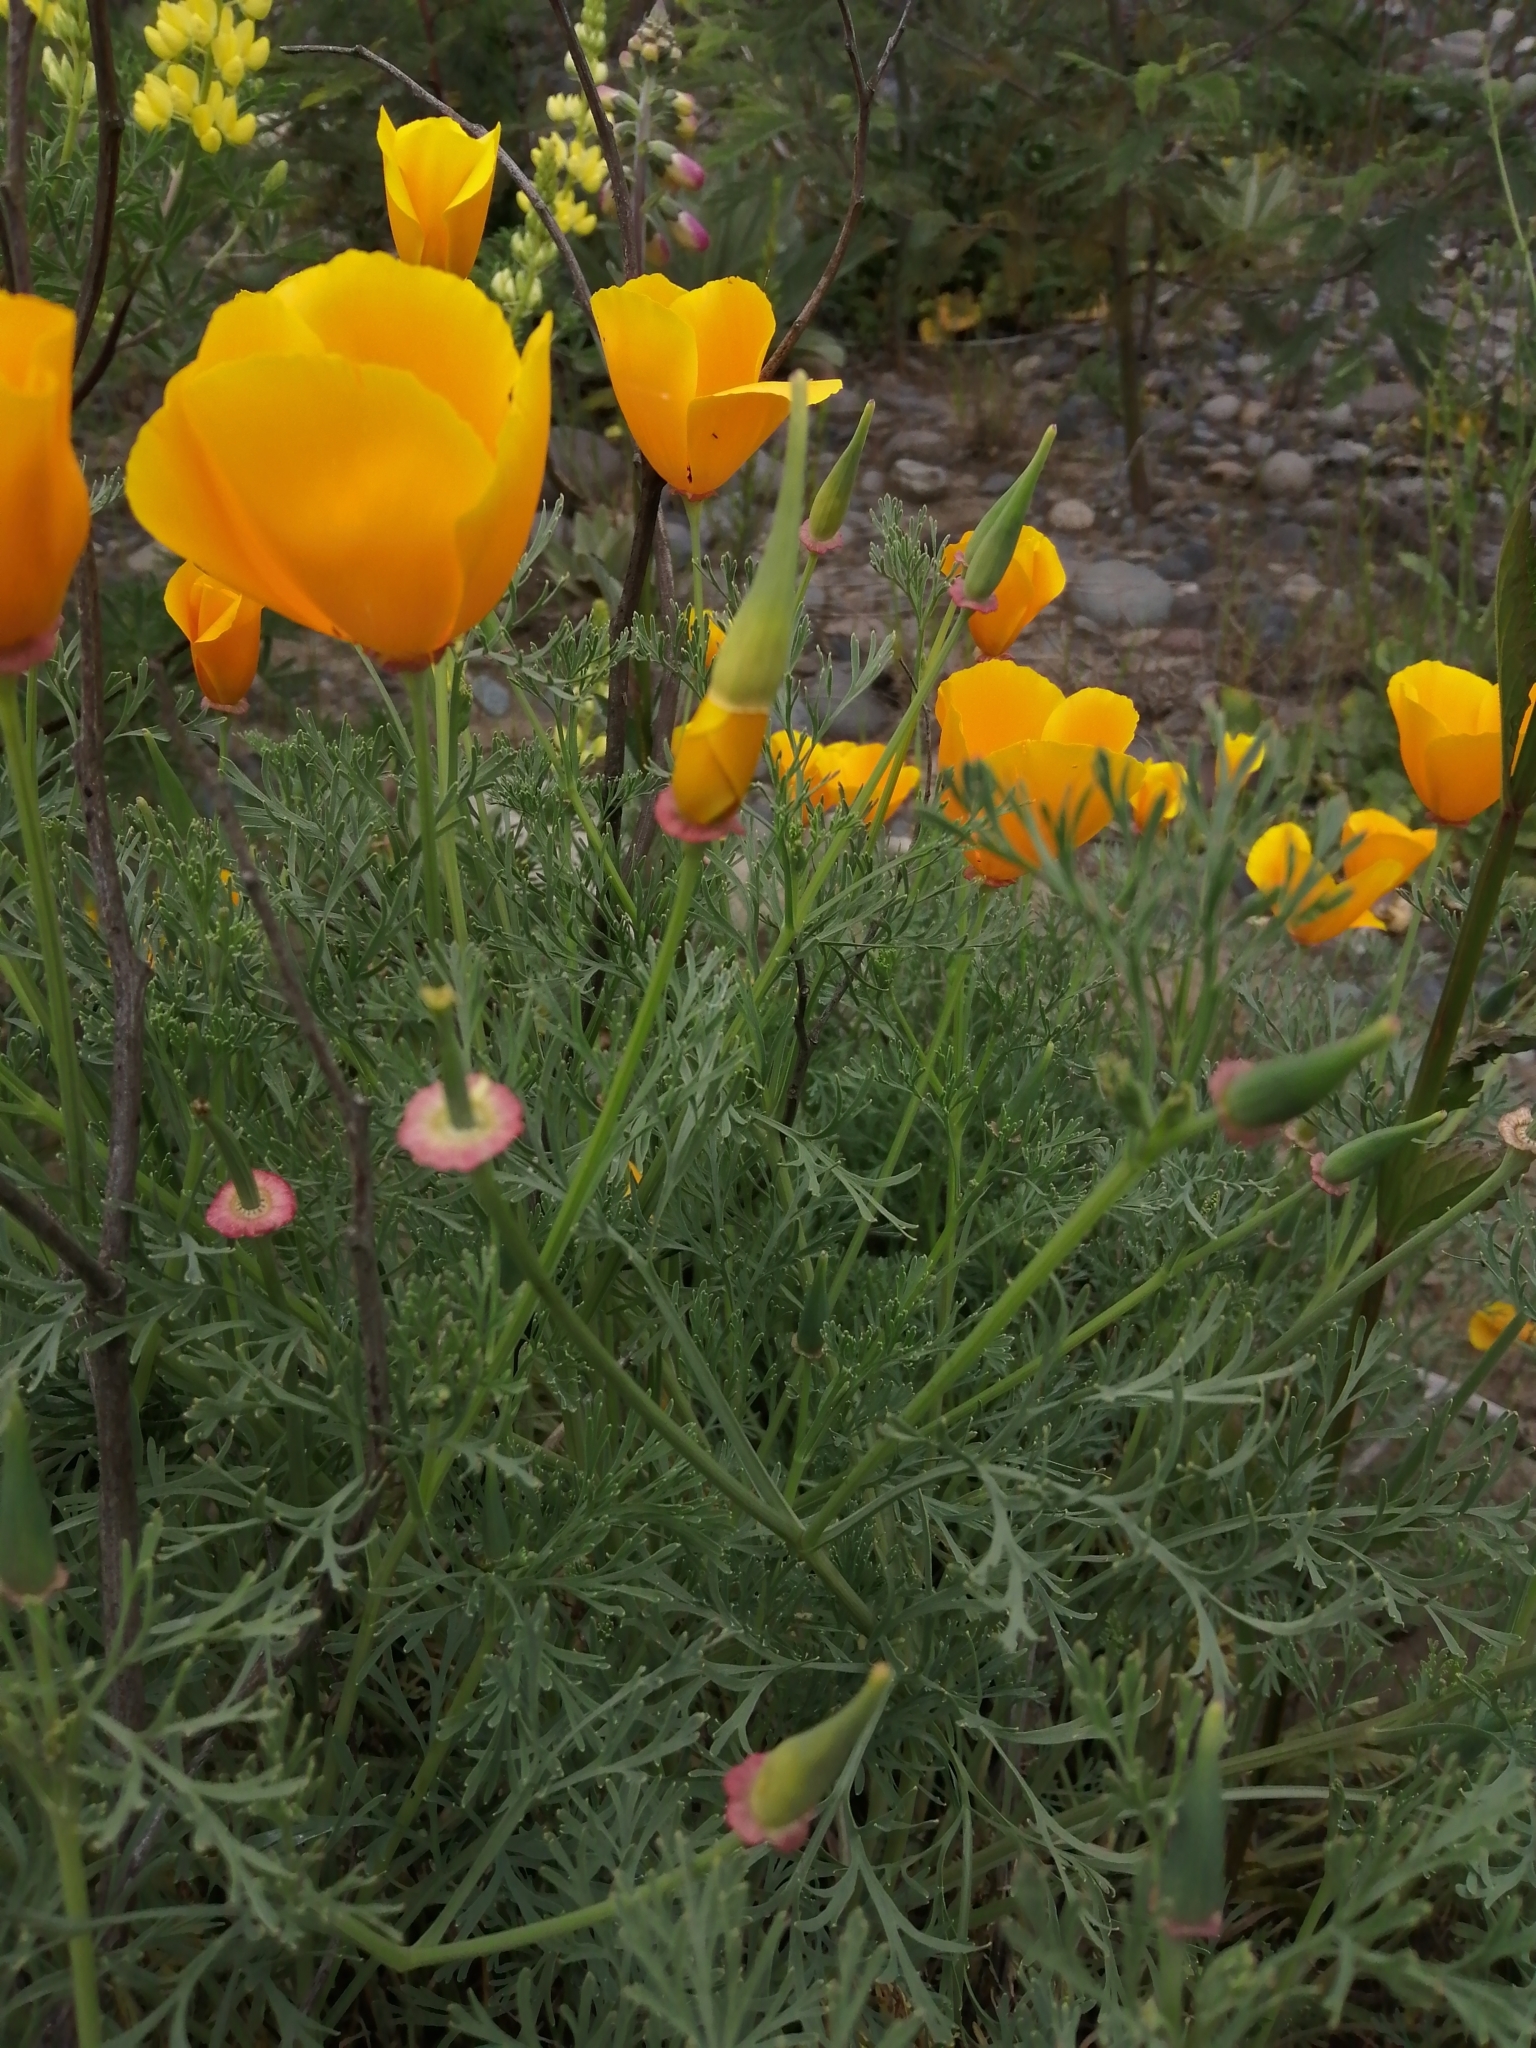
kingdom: Plantae
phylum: Tracheophyta
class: Magnoliopsida
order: Ranunculales
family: Papaveraceae
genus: Eschscholzia
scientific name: Eschscholzia californica
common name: California poppy
